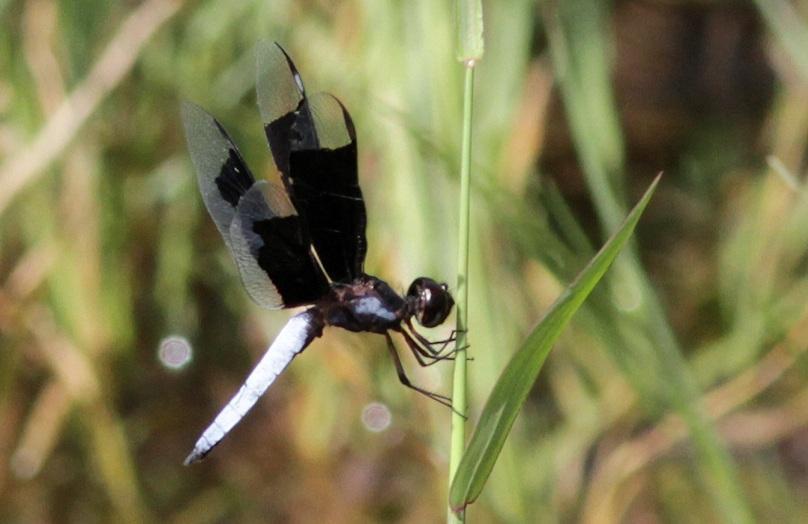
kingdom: Animalia
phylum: Arthropoda
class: Insecta
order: Odonata
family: Libellulidae
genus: Palpopleura
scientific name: Palpopleura lucia
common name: Lucia widow
